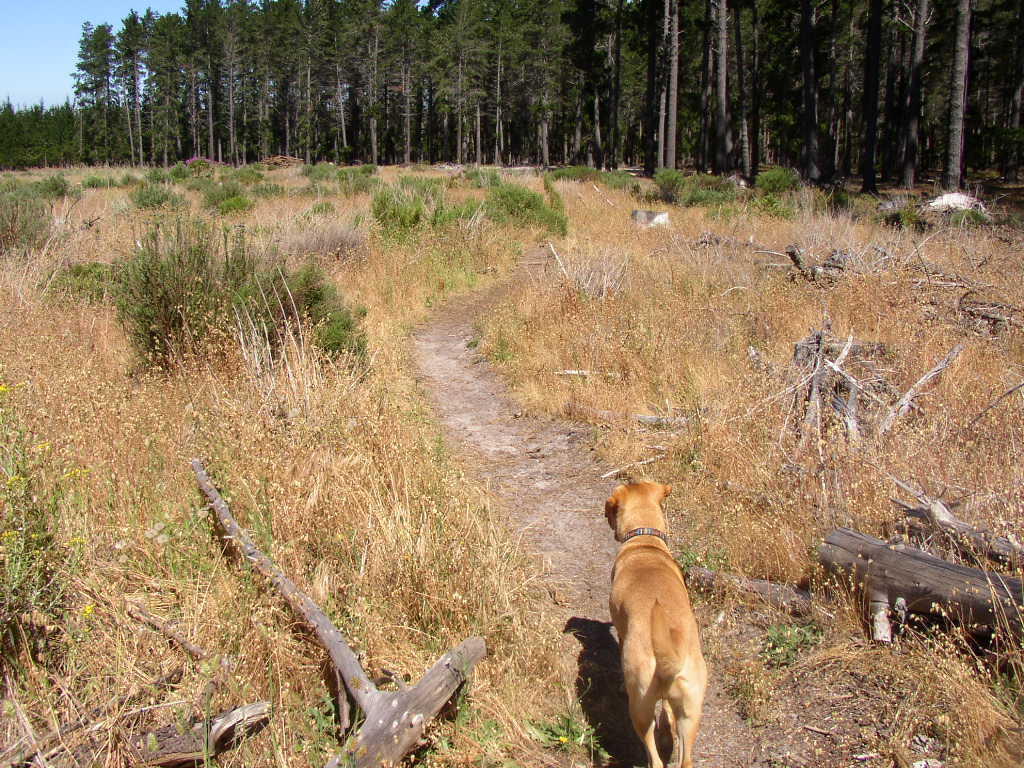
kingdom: Plantae
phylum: Tracheophyta
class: Liliopsida
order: Poales
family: Poaceae
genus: Briza
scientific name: Briza maxima
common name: Big quakinggrass
